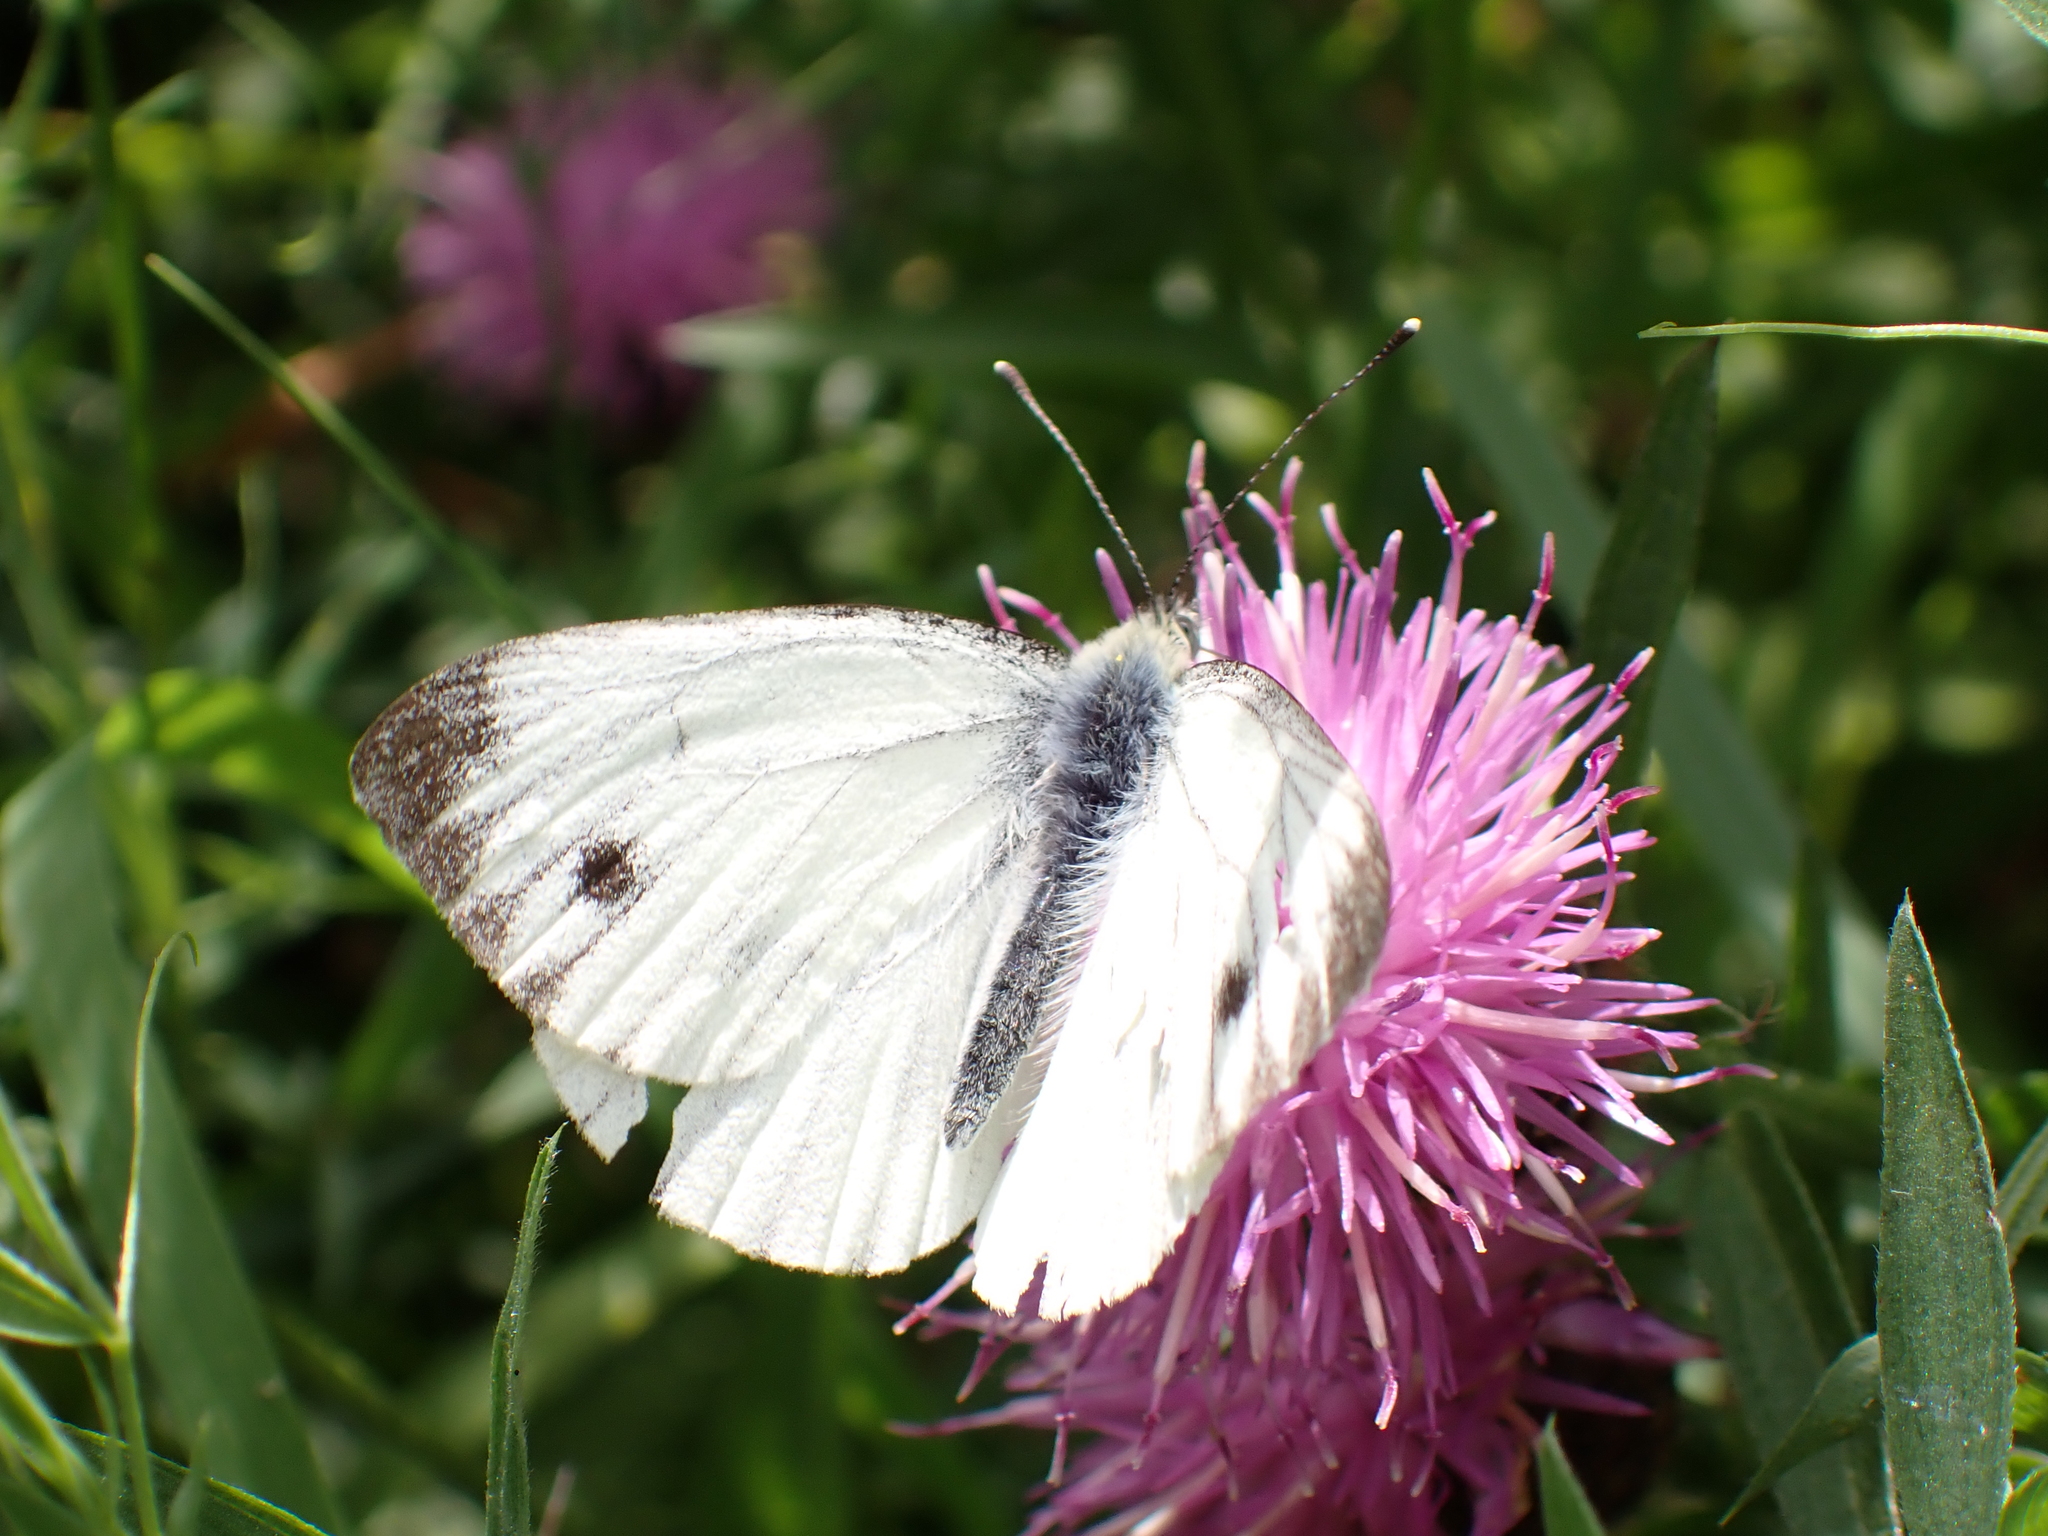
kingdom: Animalia
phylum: Arthropoda
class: Insecta
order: Lepidoptera
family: Pieridae
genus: Pieris
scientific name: Pieris napi
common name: Green-veined white
